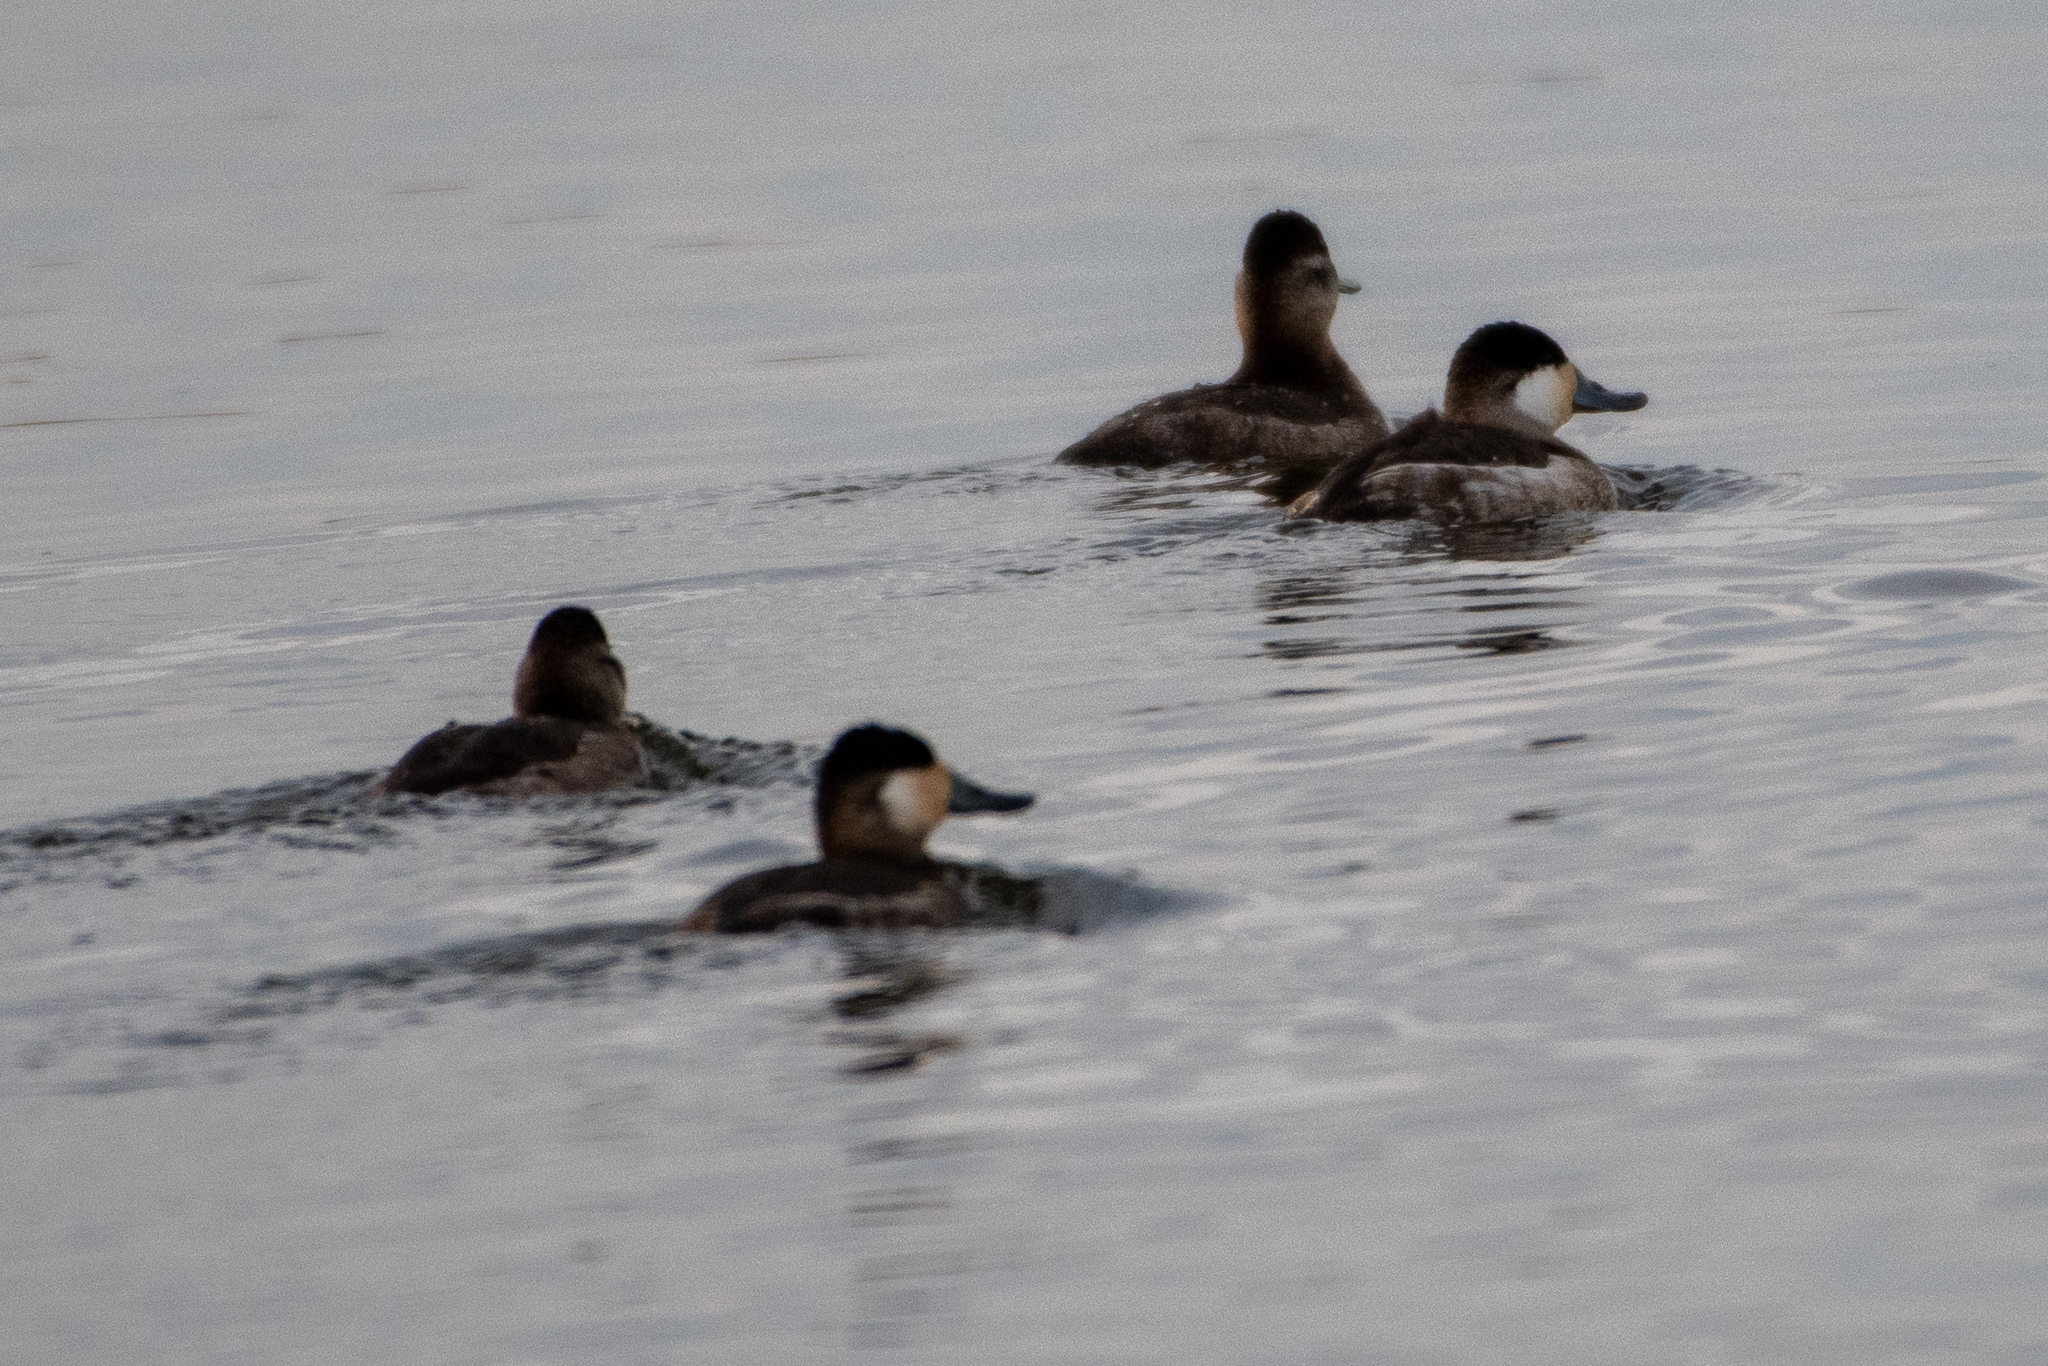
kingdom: Animalia
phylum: Chordata
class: Aves
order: Anseriformes
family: Anatidae
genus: Oxyura
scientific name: Oxyura jamaicensis
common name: Ruddy duck
